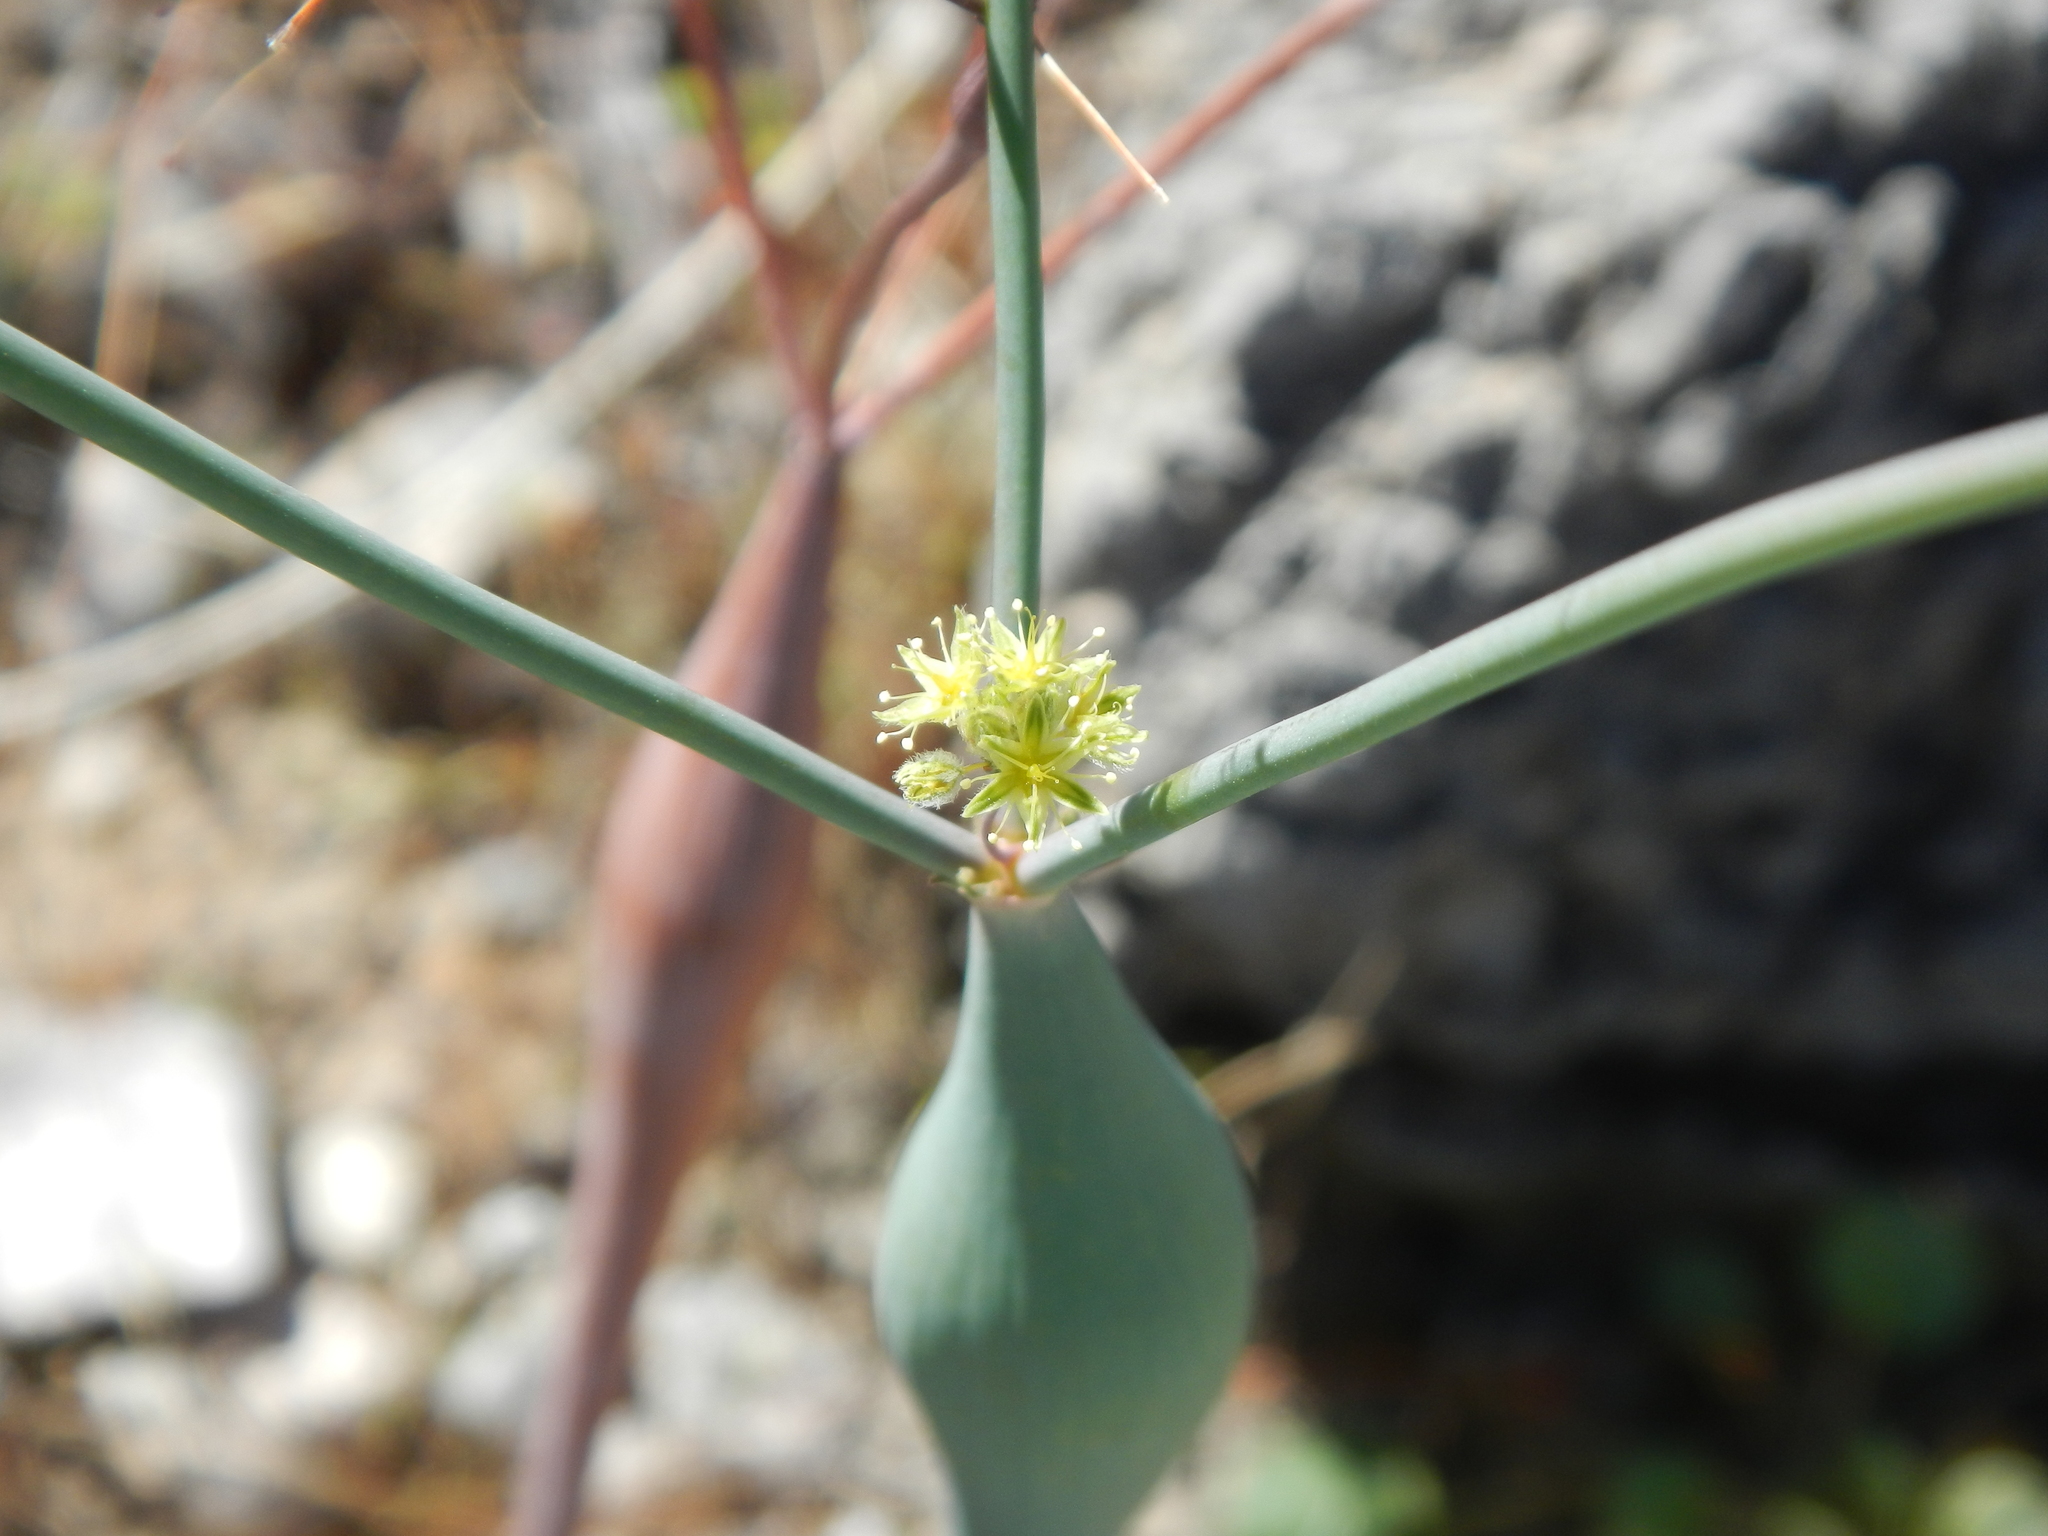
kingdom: Plantae
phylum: Tracheophyta
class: Magnoliopsida
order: Caryophyllales
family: Polygonaceae
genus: Eriogonum
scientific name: Eriogonum inflatum
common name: Desert trumpet
